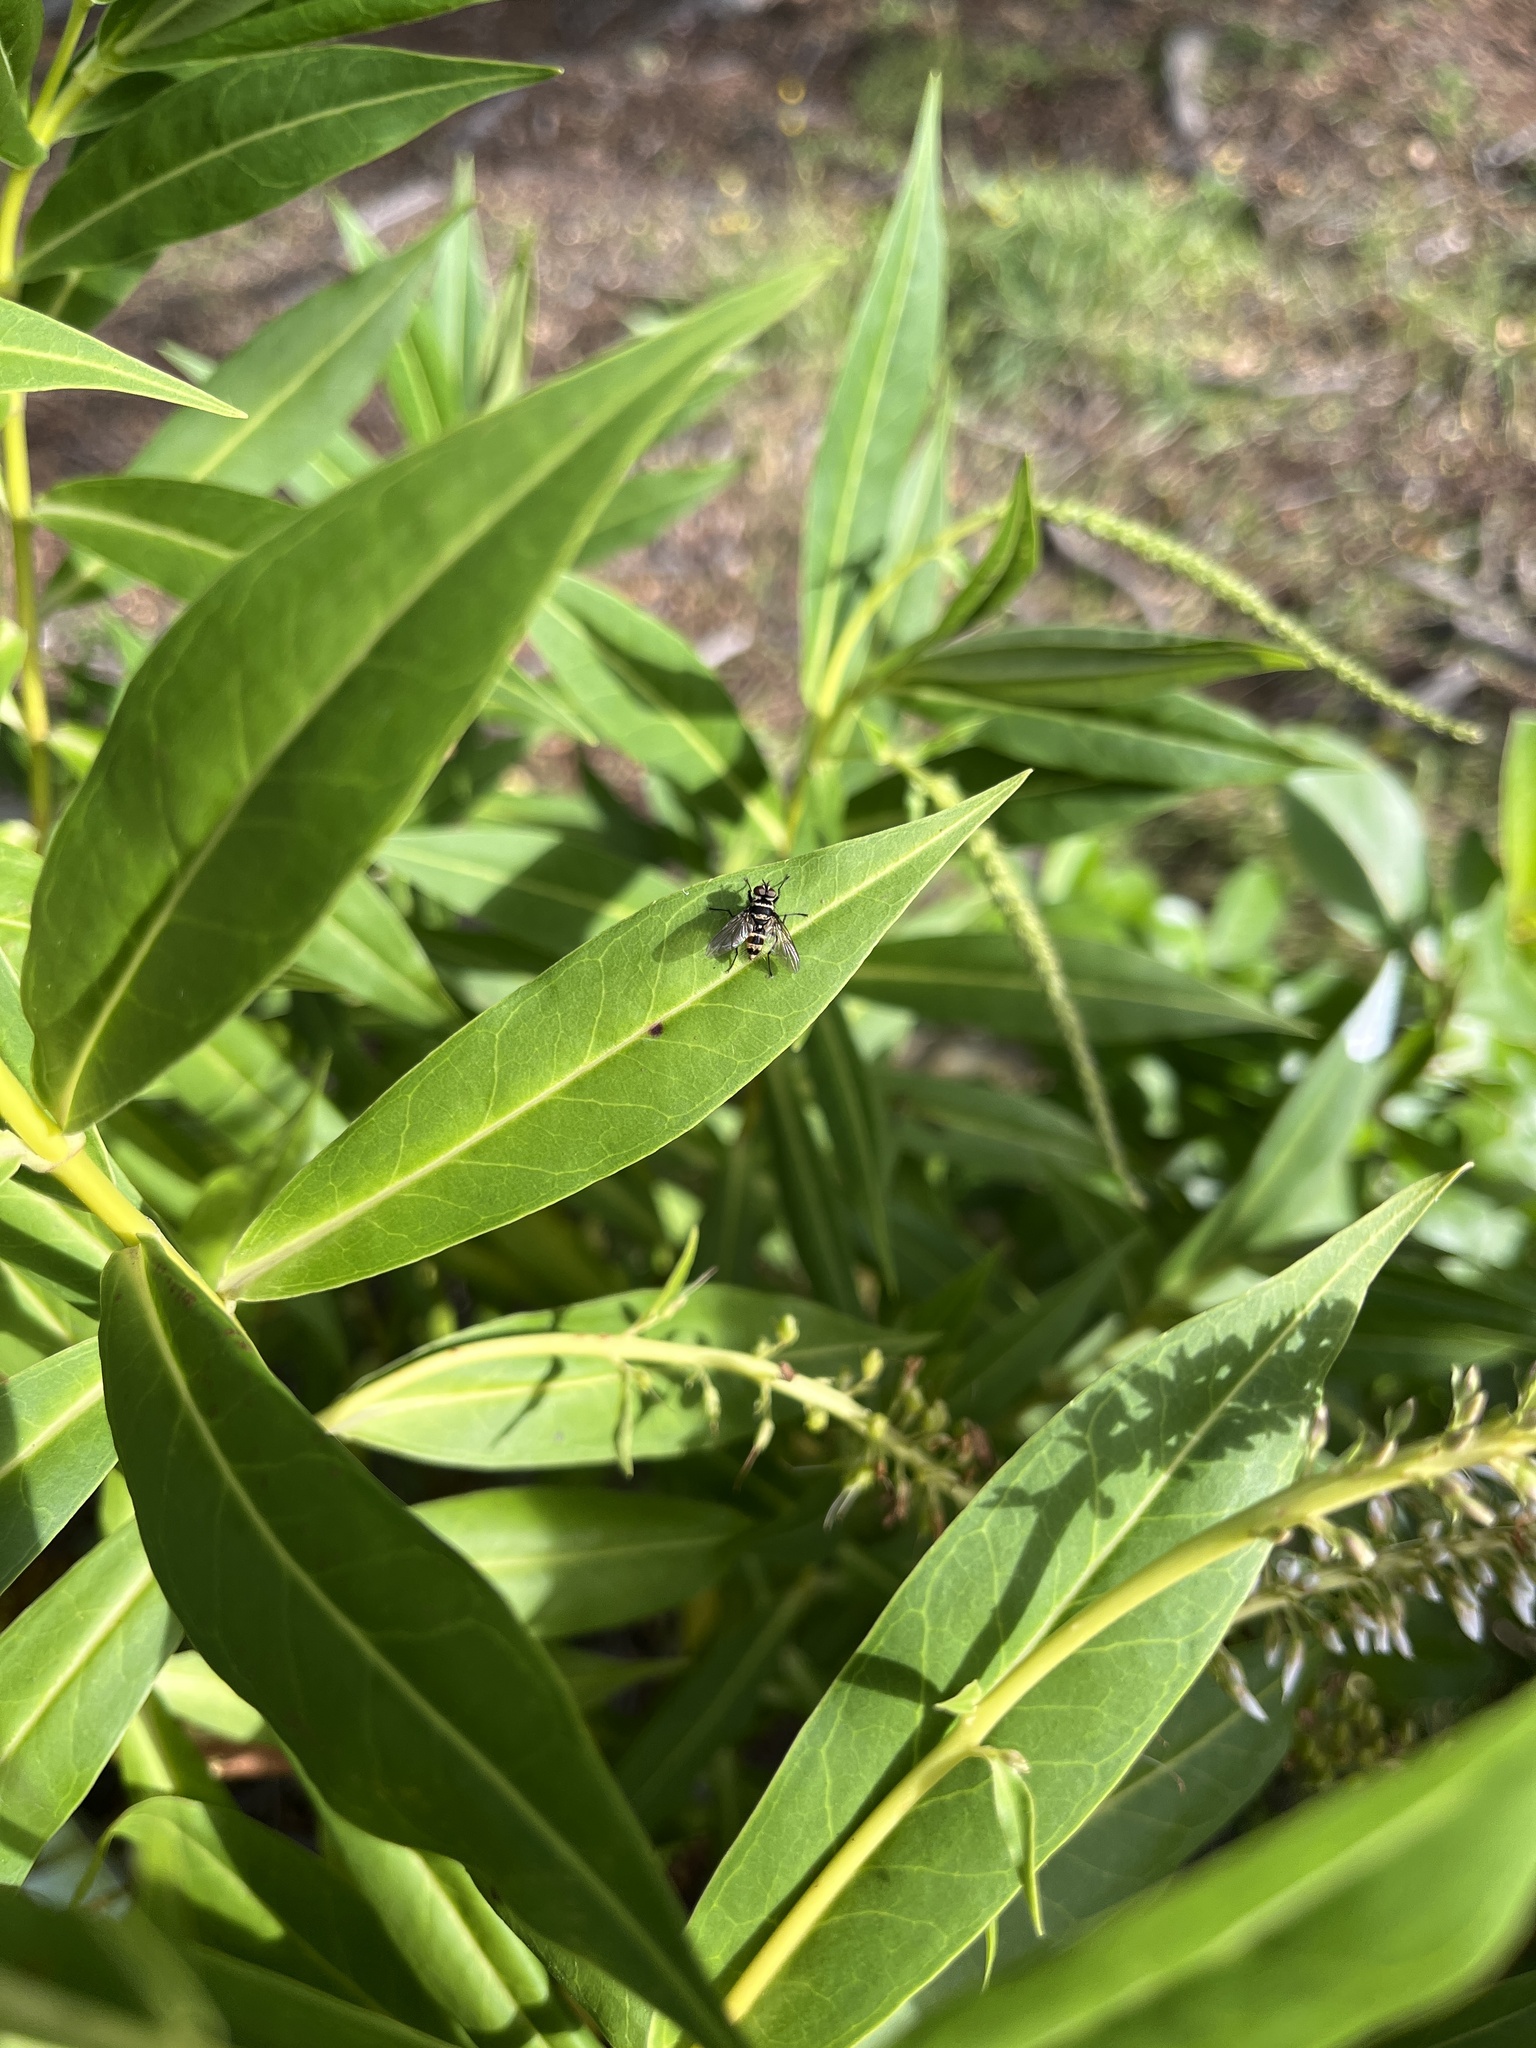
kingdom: Animalia
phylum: Arthropoda
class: Insecta
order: Diptera
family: Tachinidae
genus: Trigonospila
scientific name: Trigonospila brevifacies
